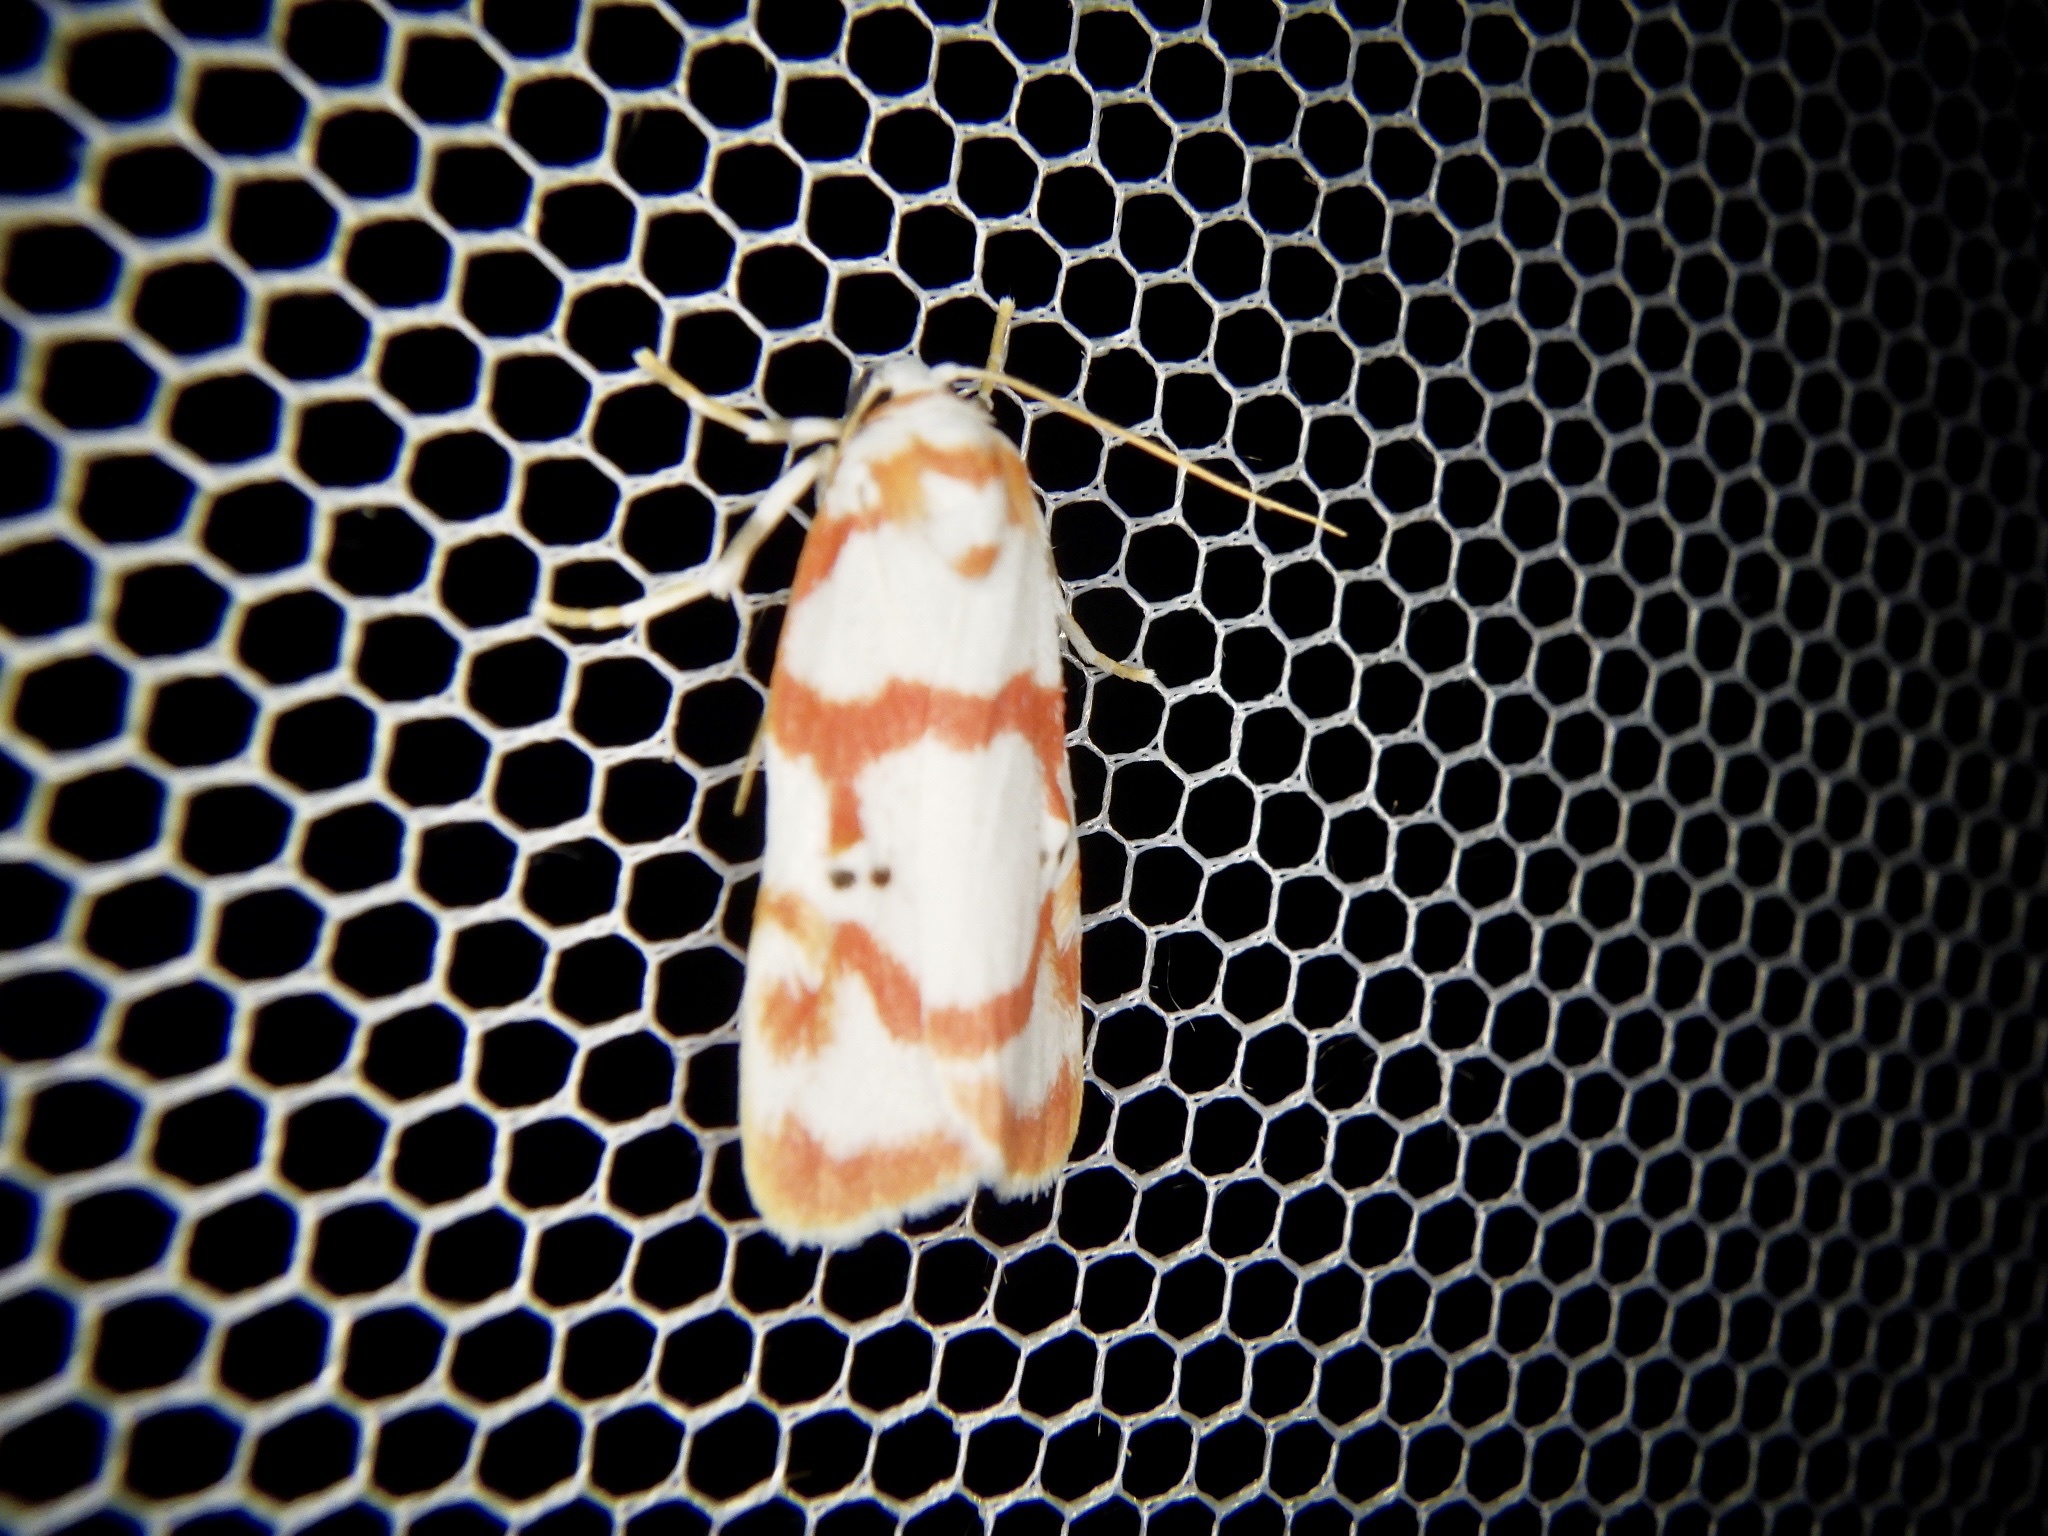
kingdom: Animalia
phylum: Arthropoda
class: Insecta
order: Lepidoptera
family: Erebidae
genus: Cyana
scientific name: Cyana hamata
